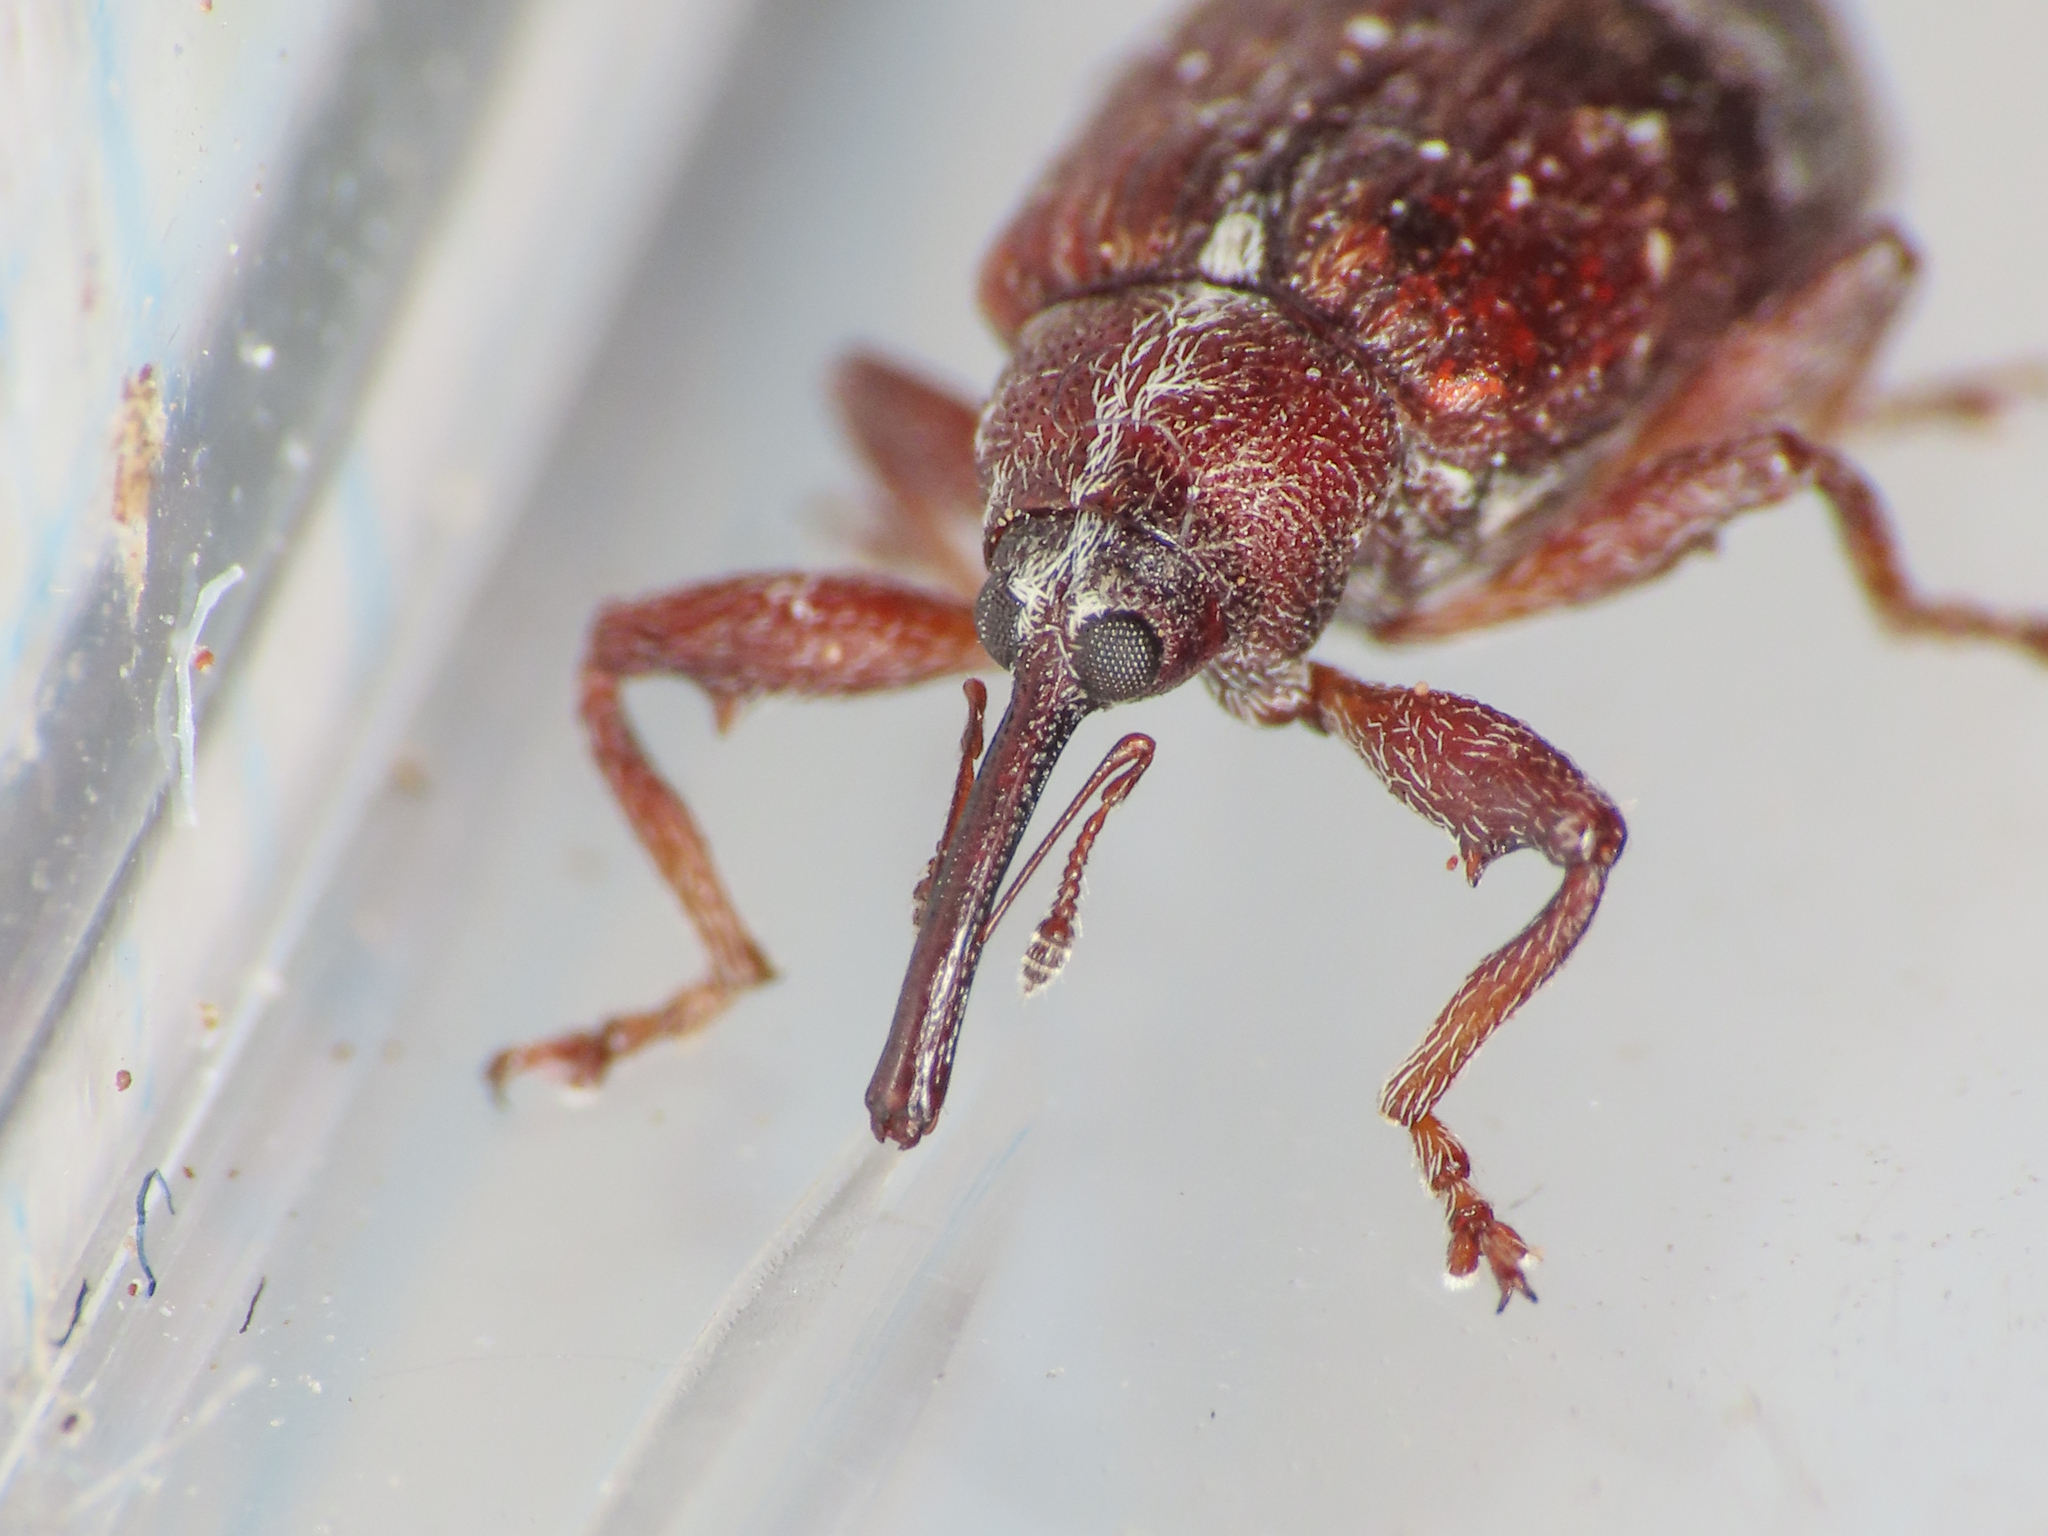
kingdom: Animalia
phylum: Arthropoda
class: Insecta
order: Coleoptera
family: Curculionidae
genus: Anthonomus
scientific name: Anthonomus rufus
